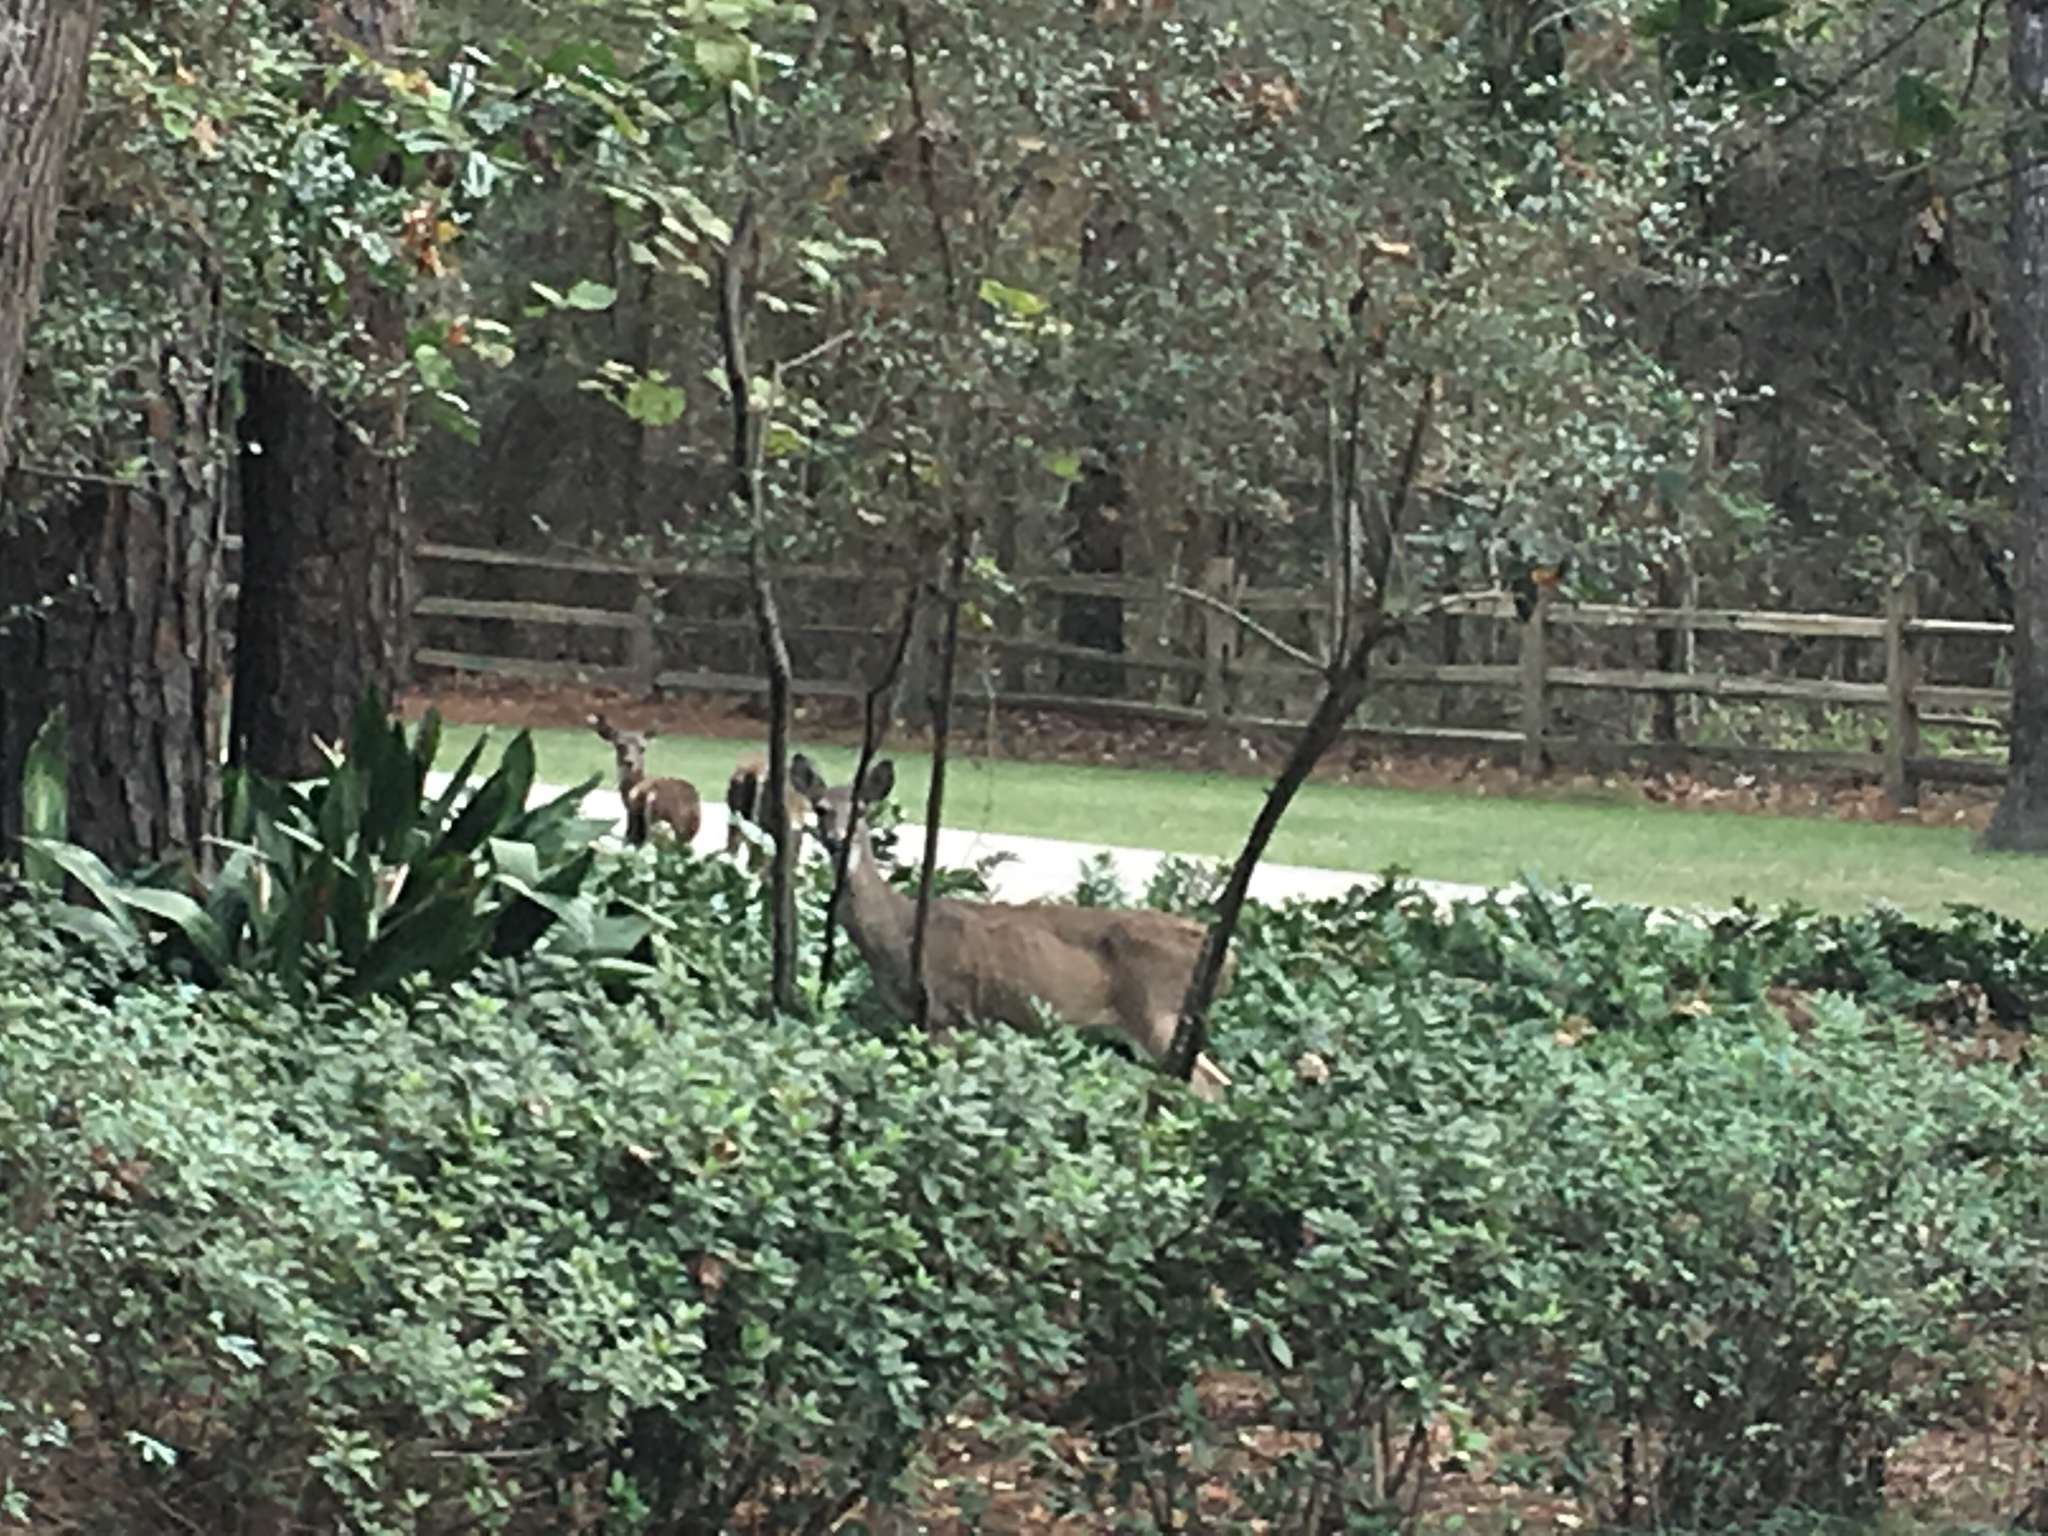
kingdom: Animalia
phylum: Chordata
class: Mammalia
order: Artiodactyla
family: Cervidae
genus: Odocoileus
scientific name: Odocoileus virginianus
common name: White-tailed deer
